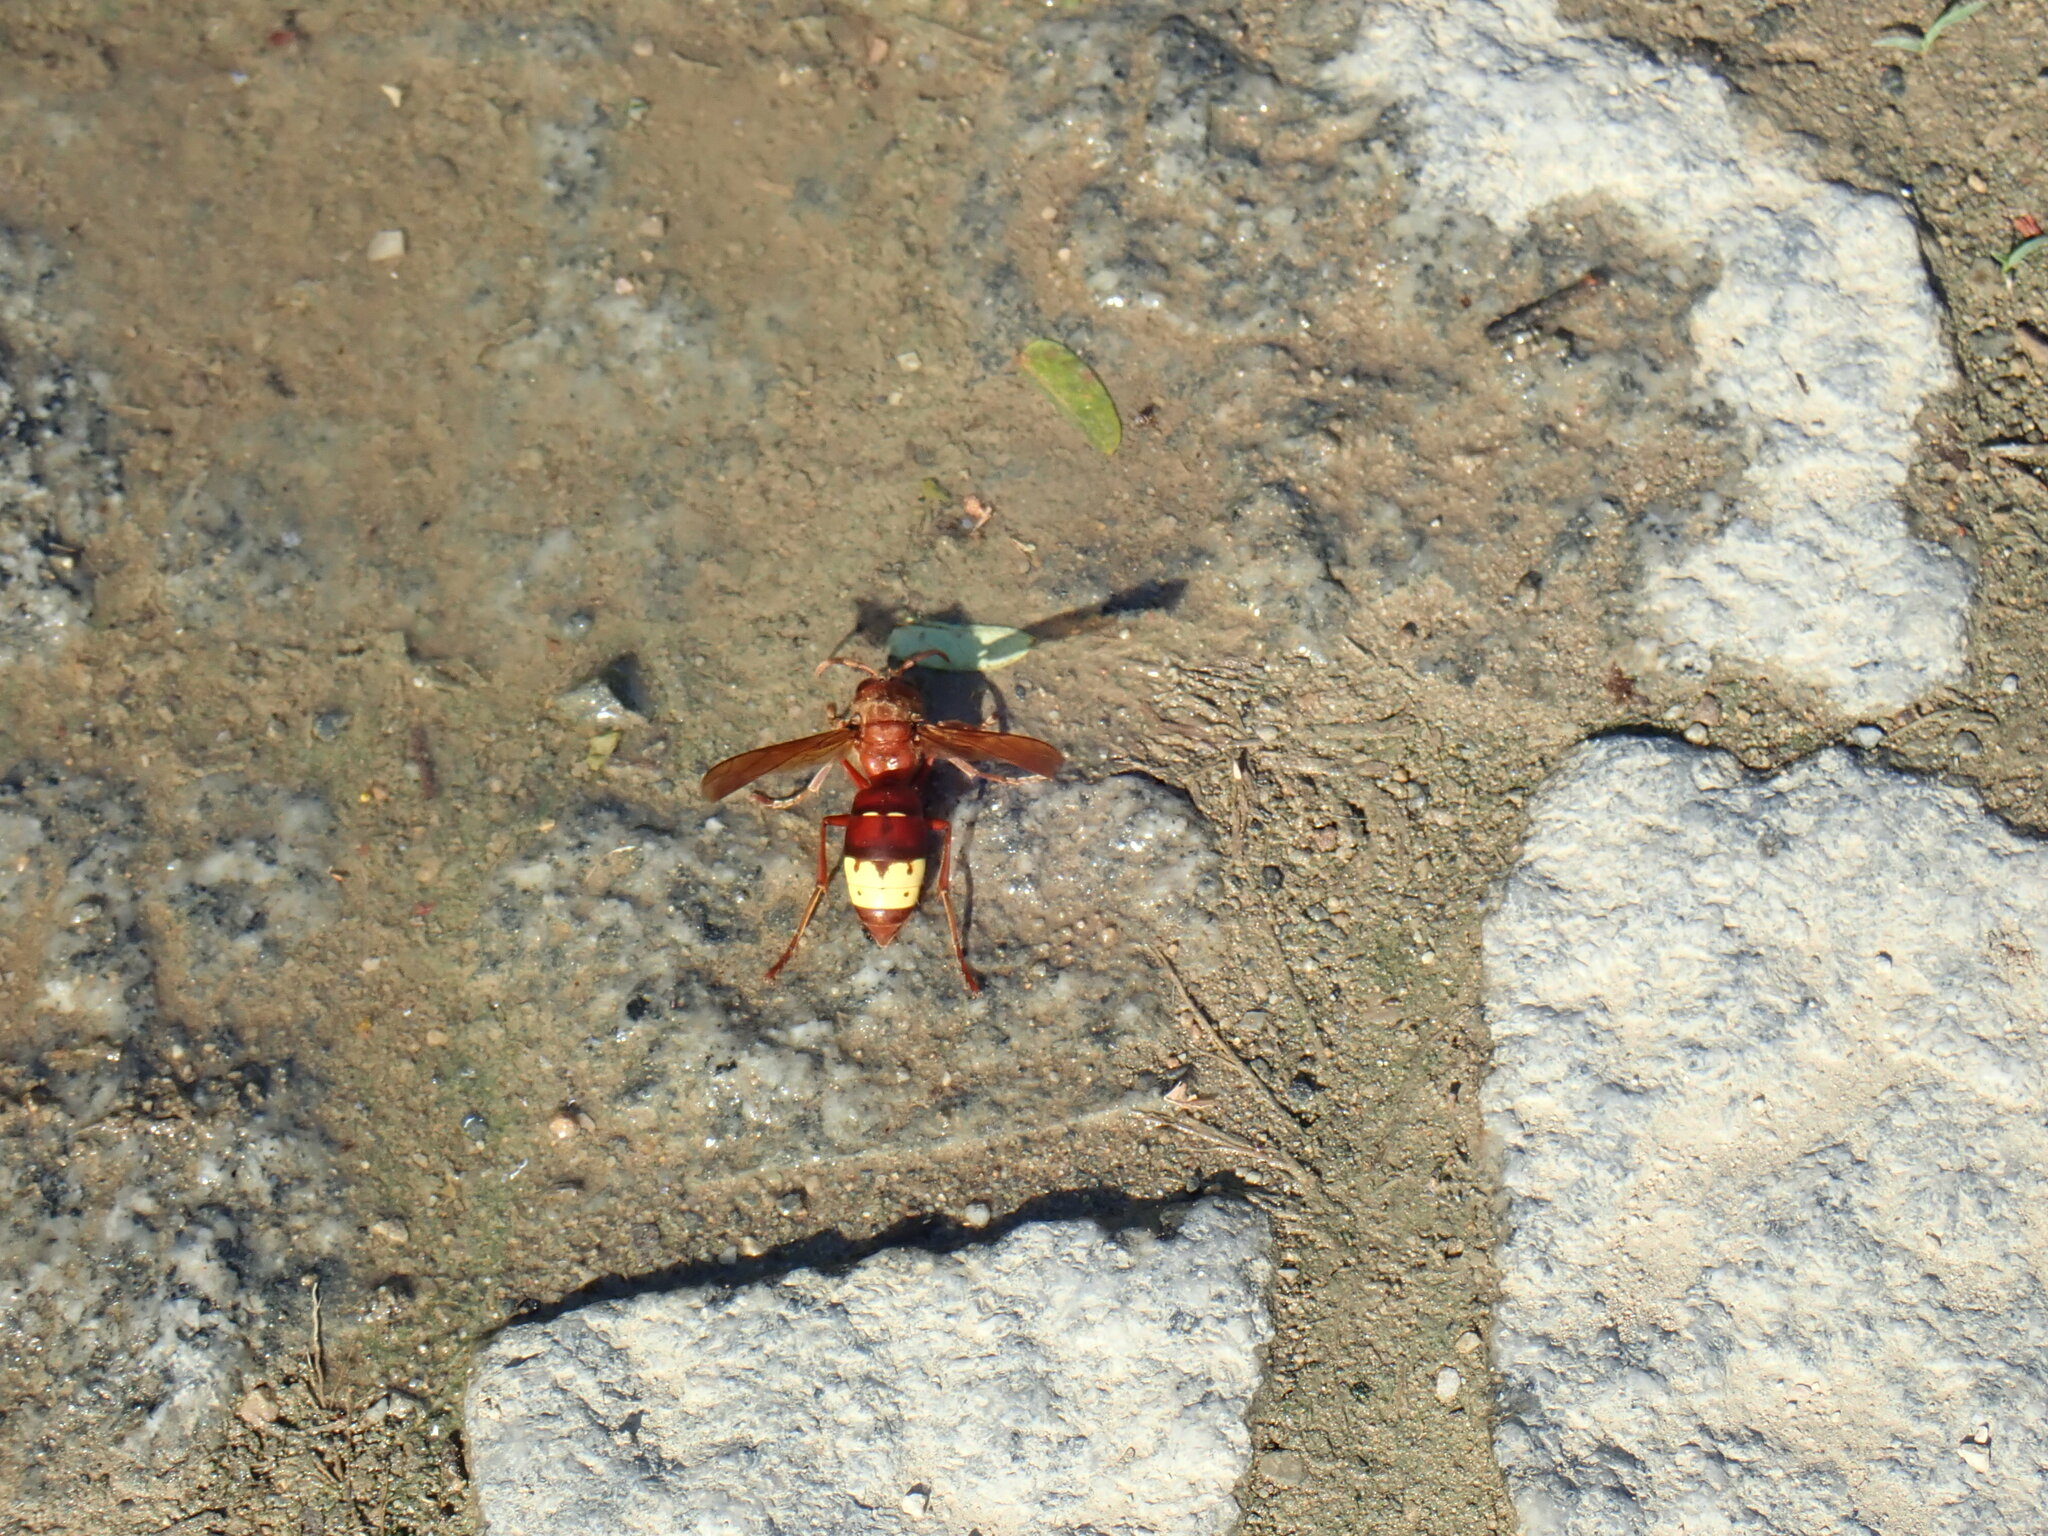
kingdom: Animalia
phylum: Arthropoda
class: Insecta
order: Hymenoptera
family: Vespidae
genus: Vespa
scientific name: Vespa orientalis
